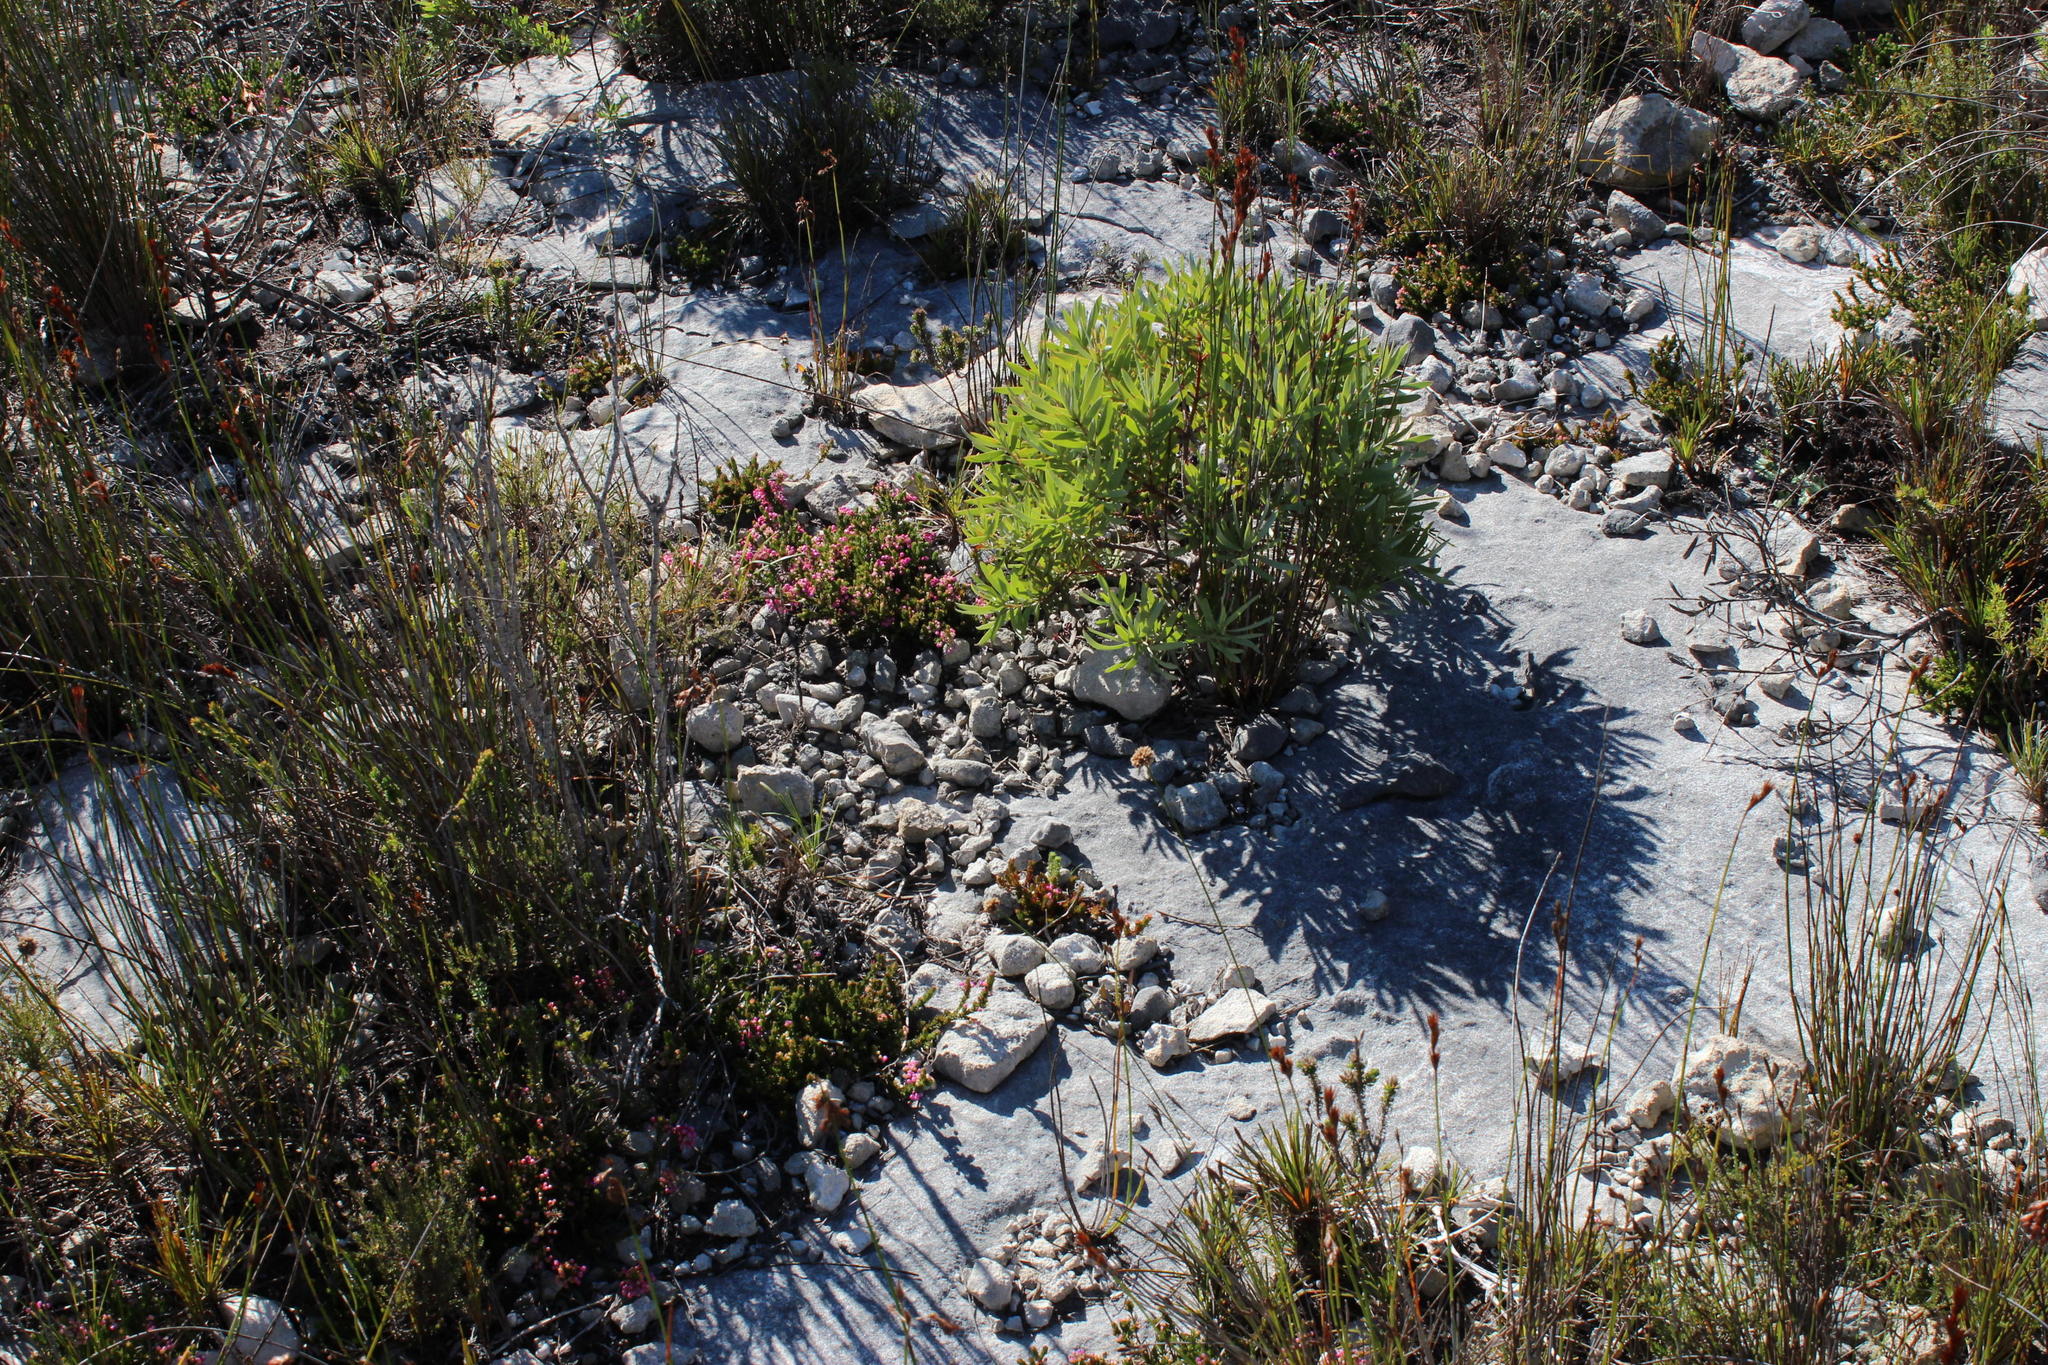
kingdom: Plantae
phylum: Tracheophyta
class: Magnoliopsida
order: Proteales
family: Proteaceae
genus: Leucadendron
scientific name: Leucadendron meridianum
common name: Limestone conebush
